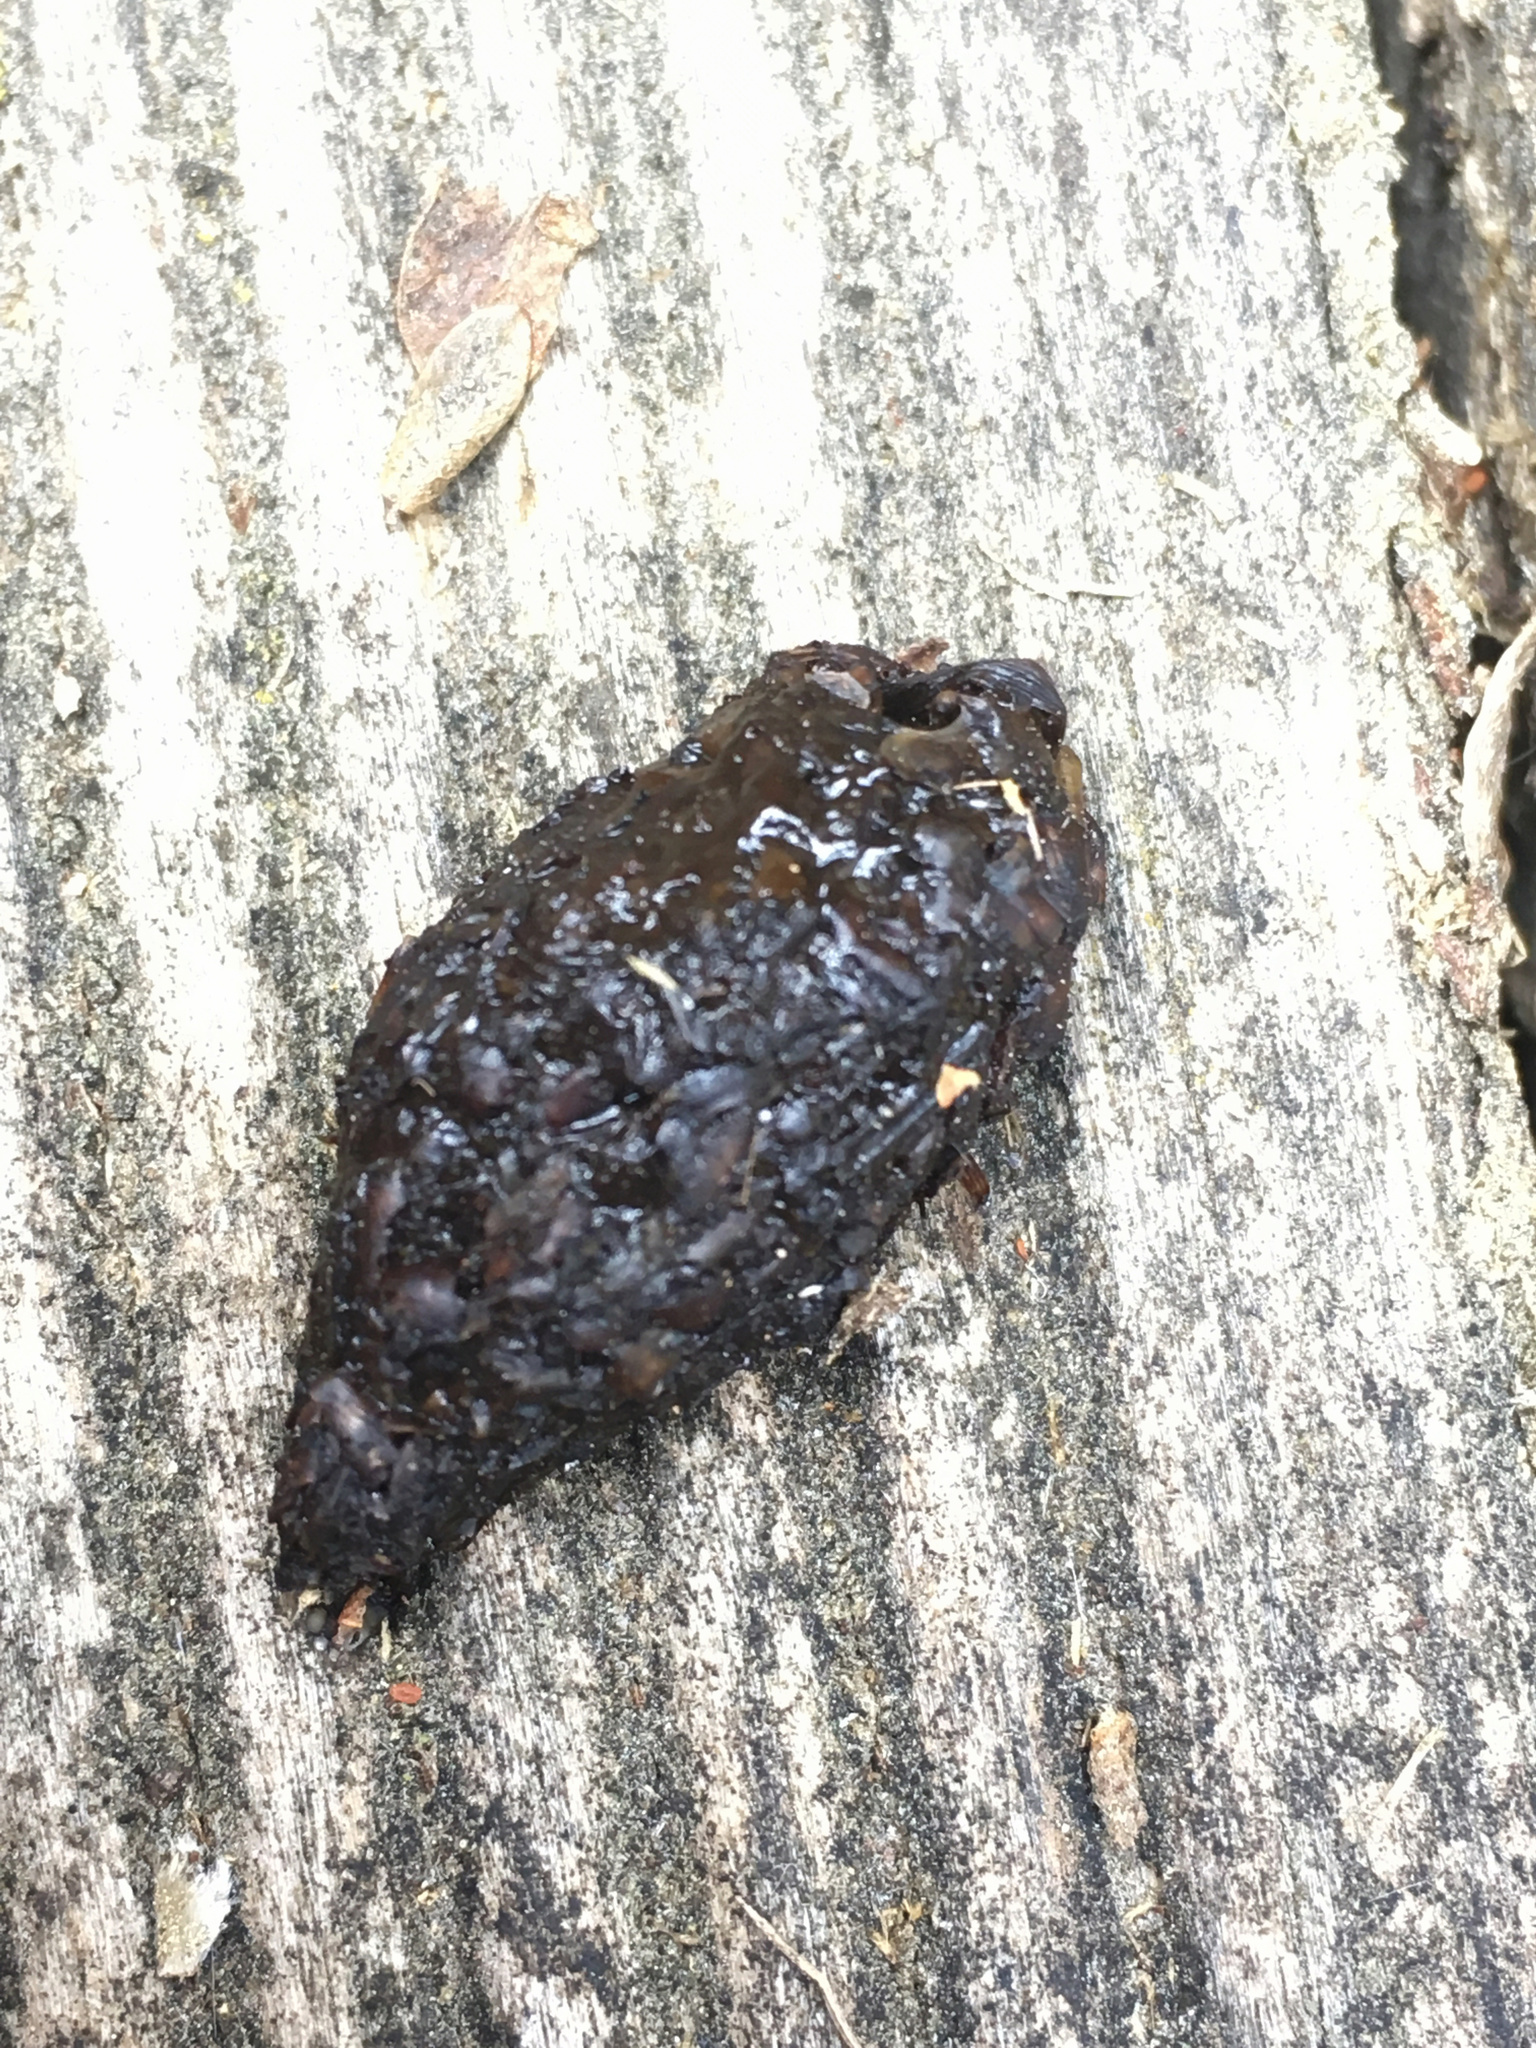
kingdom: Animalia
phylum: Chordata
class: Mammalia
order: Erinaceomorpha
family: Erinaceidae
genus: Erinaceus
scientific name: Erinaceus europaeus
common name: West european hedgehog
